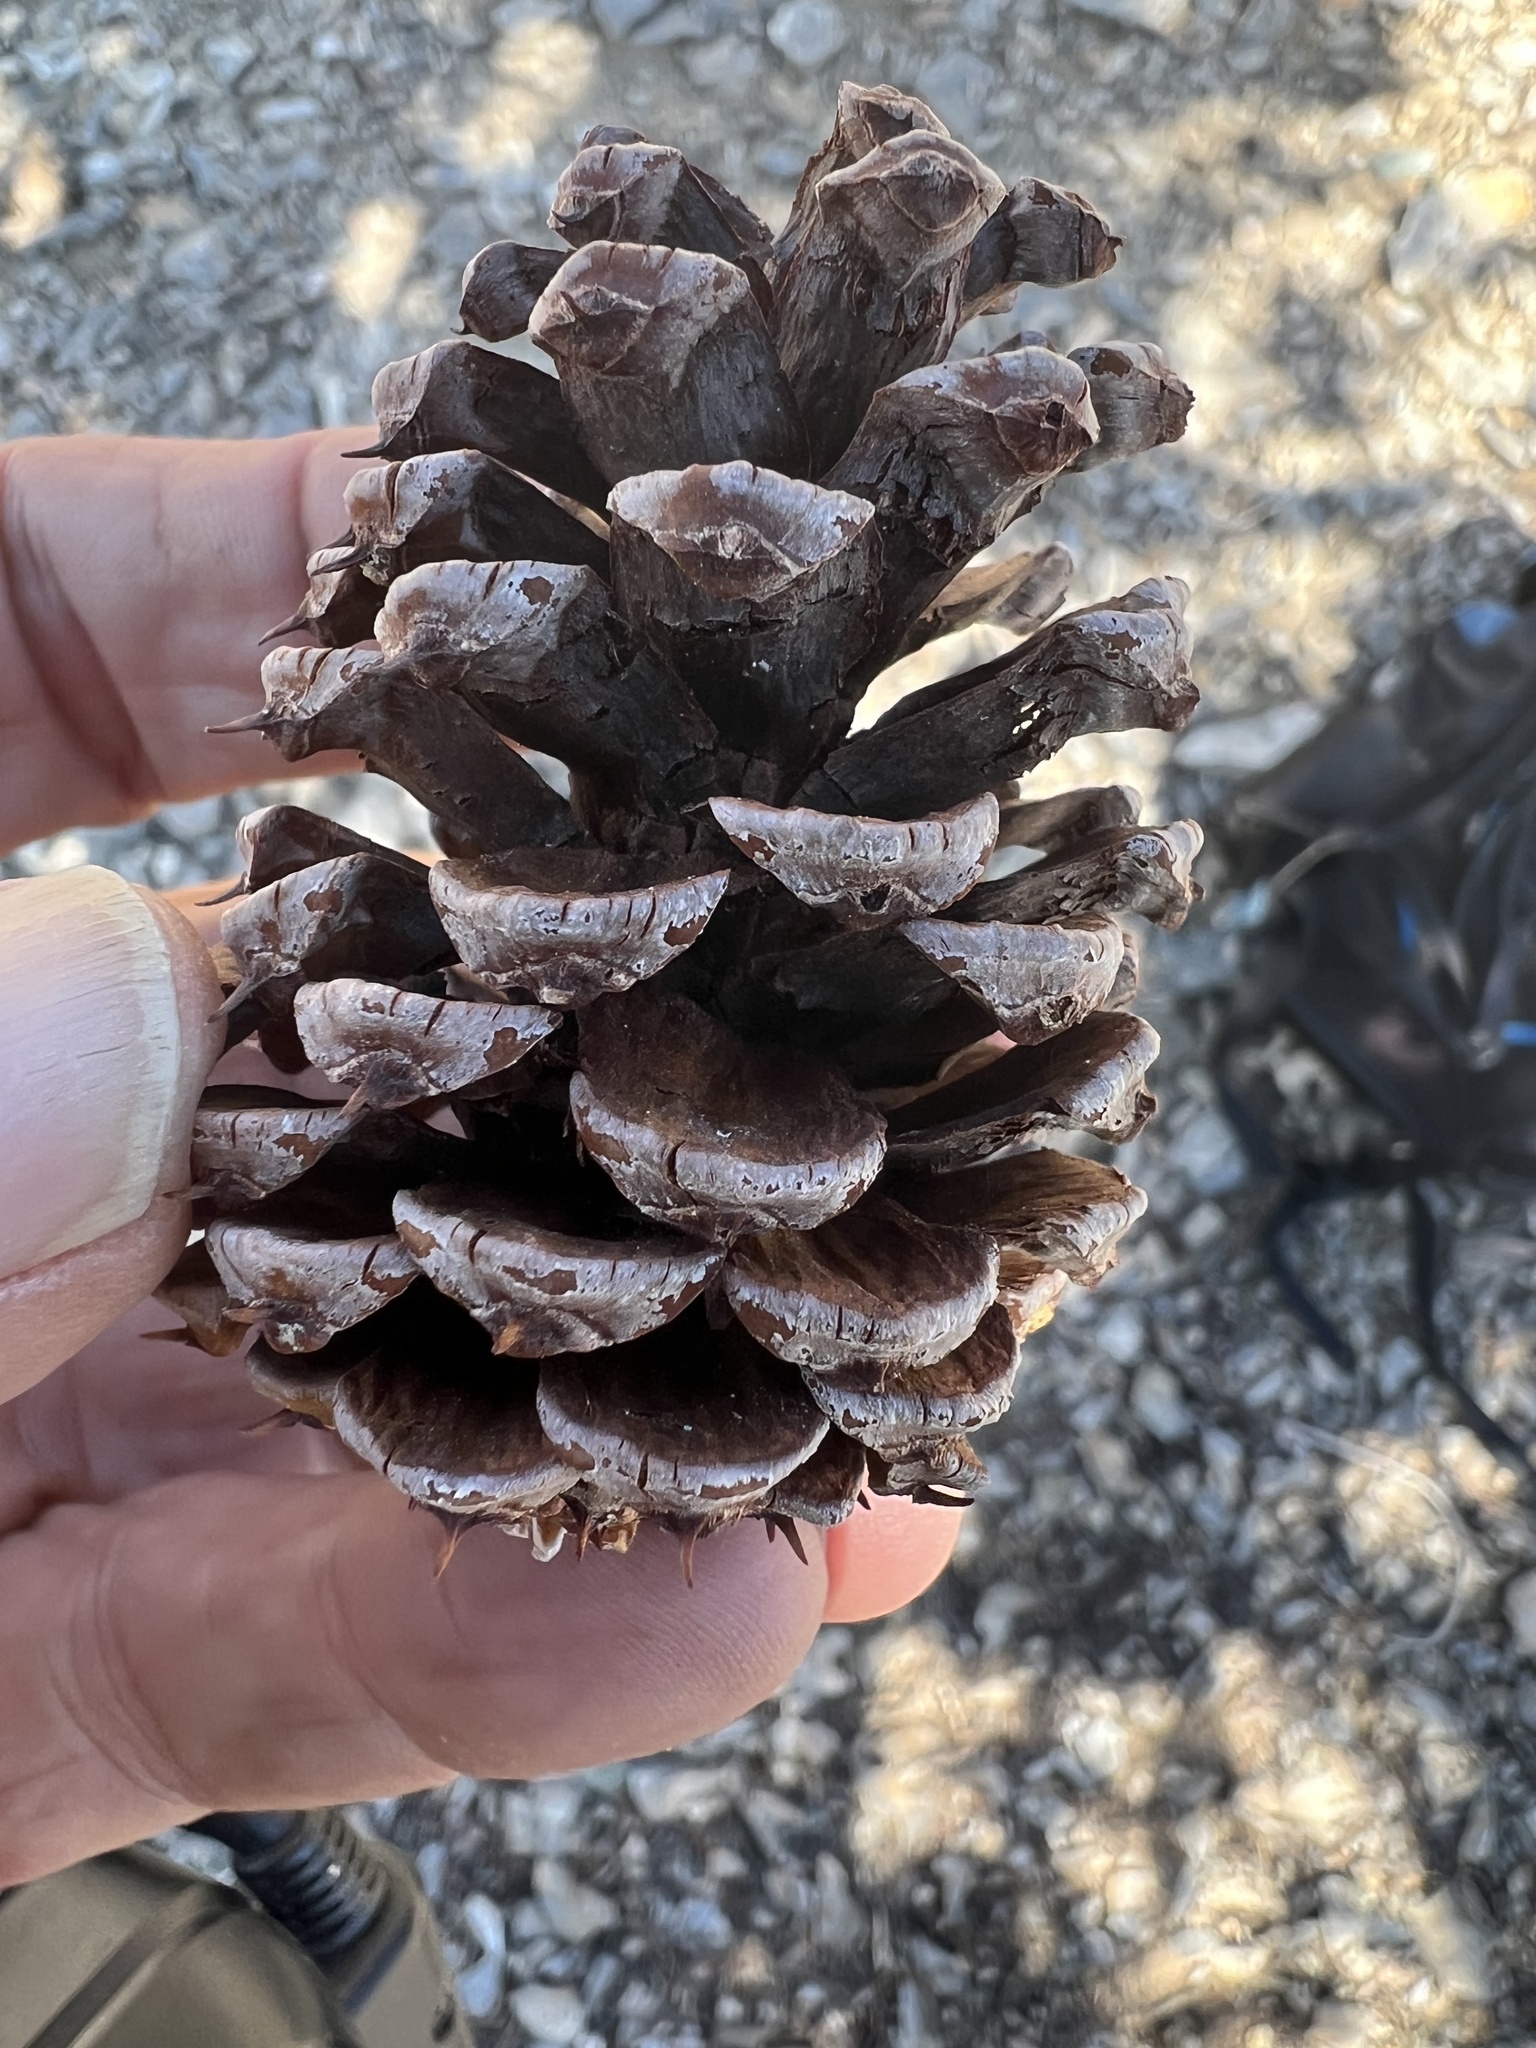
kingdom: Plantae
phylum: Tracheophyta
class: Pinopsida
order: Pinales
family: Pinaceae
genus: Pinus
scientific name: Pinus longaeva
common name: Intermountain bristlecone pine
